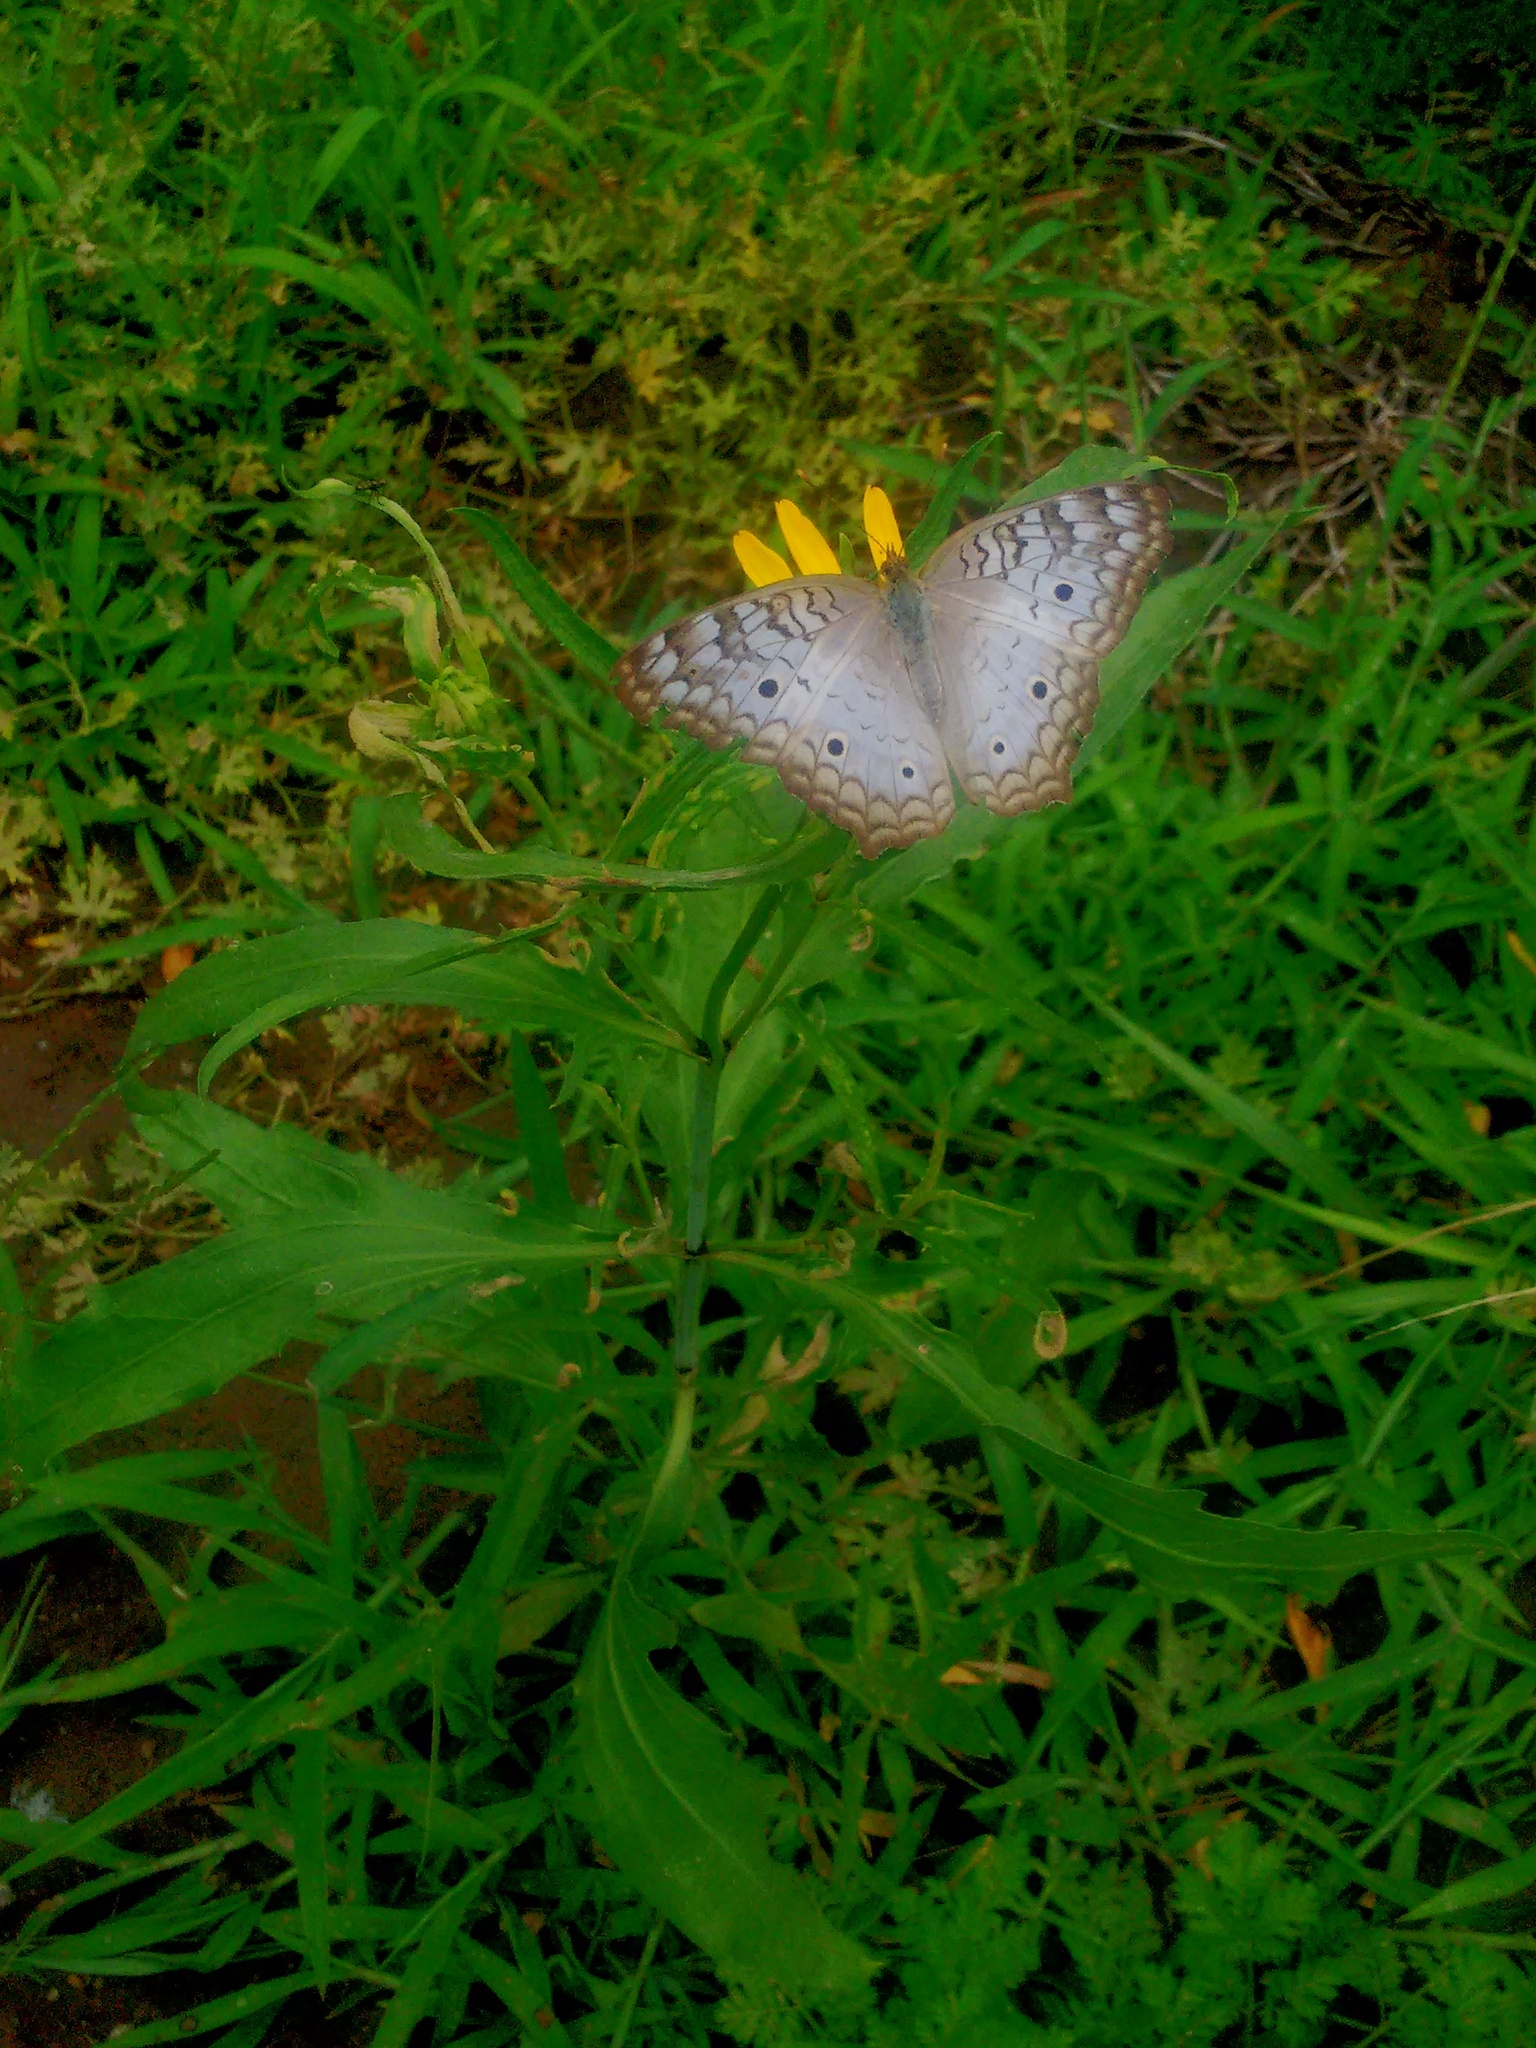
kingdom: Animalia
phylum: Arthropoda
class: Insecta
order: Lepidoptera
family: Nymphalidae
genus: Anartia
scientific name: Anartia jatrophae
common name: White peacock
